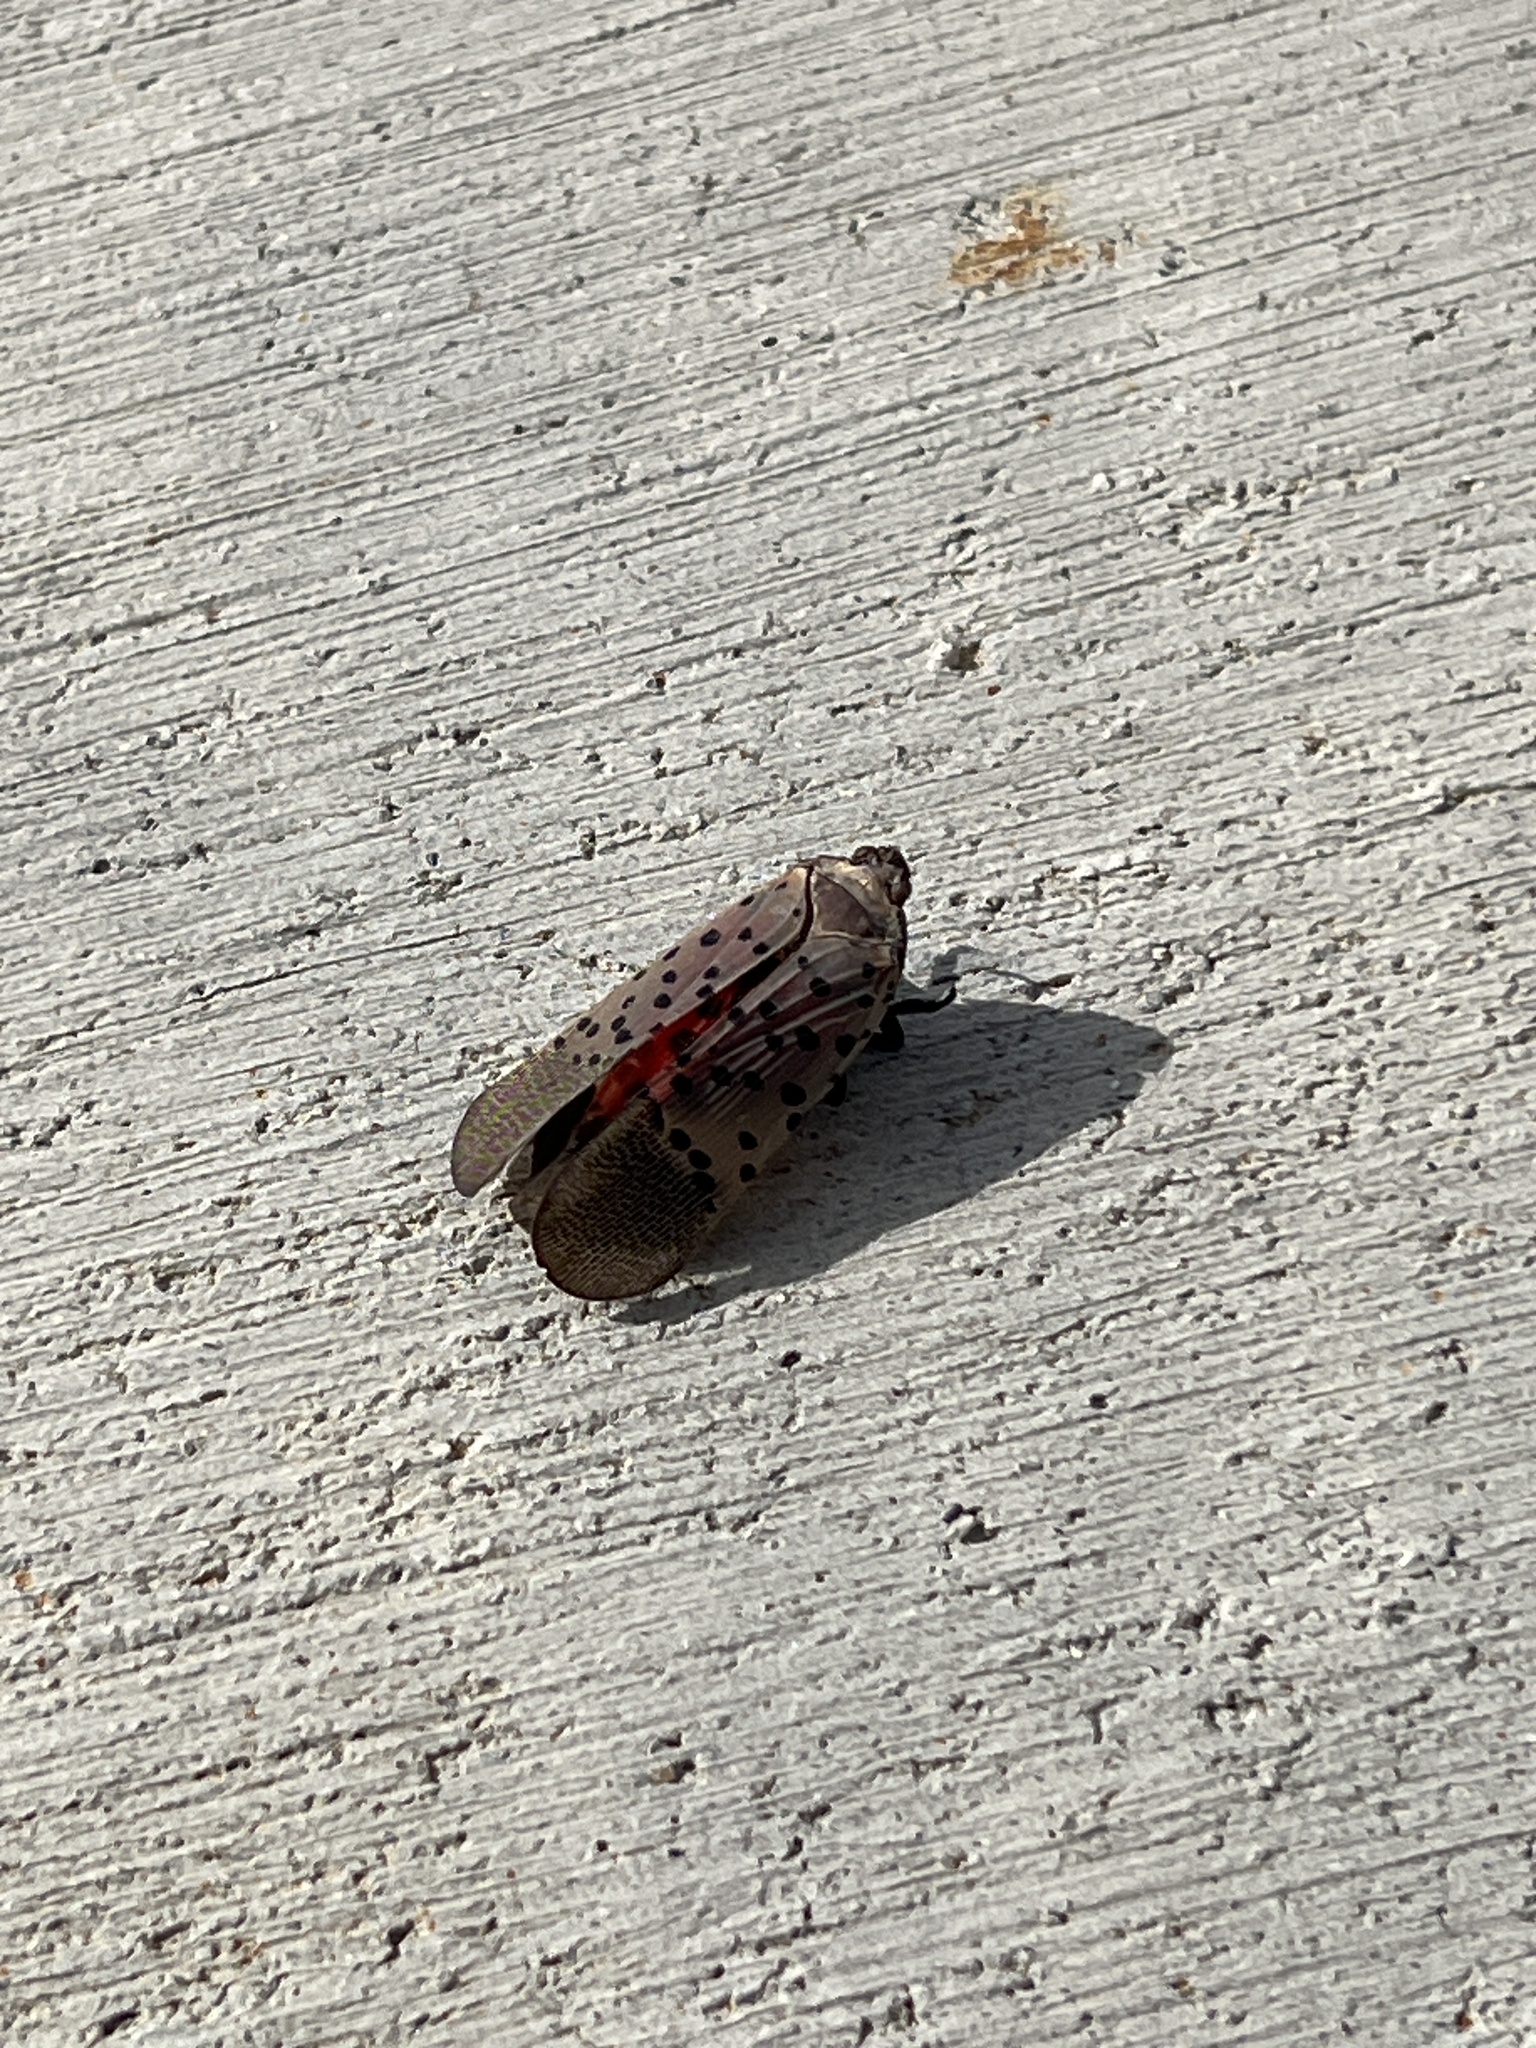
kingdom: Animalia
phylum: Arthropoda
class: Insecta
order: Hemiptera
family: Fulgoridae
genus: Lycorma
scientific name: Lycorma delicatula
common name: Spotted lanternfly
